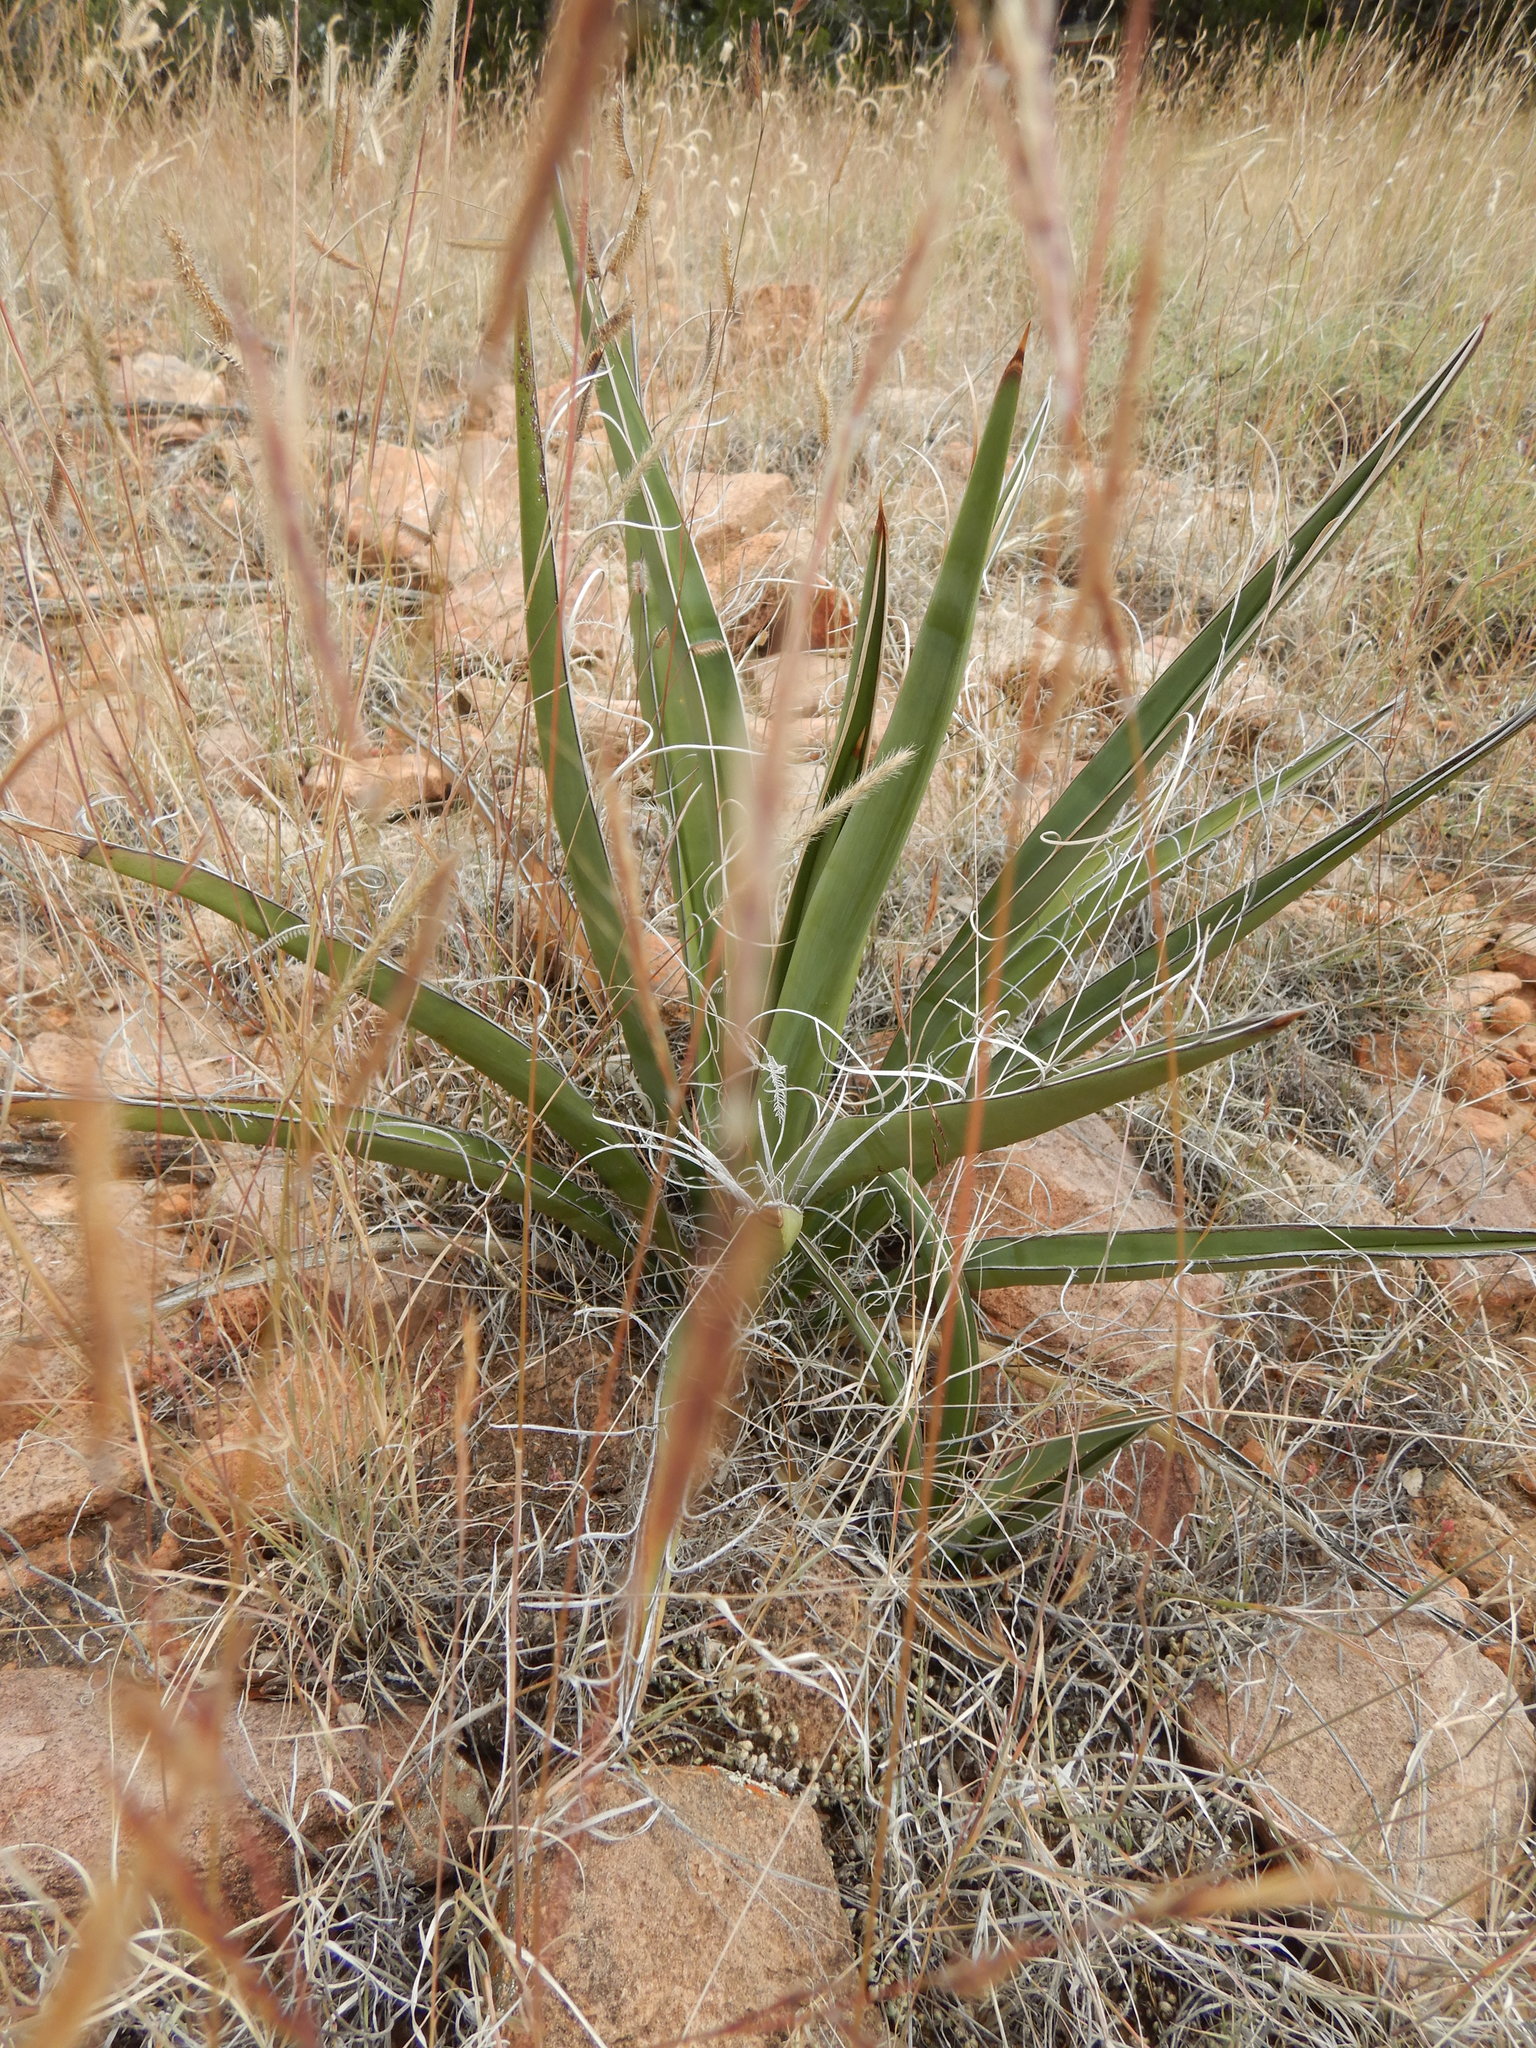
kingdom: Plantae
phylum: Tracheophyta
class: Liliopsida
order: Asparagales
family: Asparagaceae
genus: Yucca
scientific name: Yucca baccata
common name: Banana yucca
